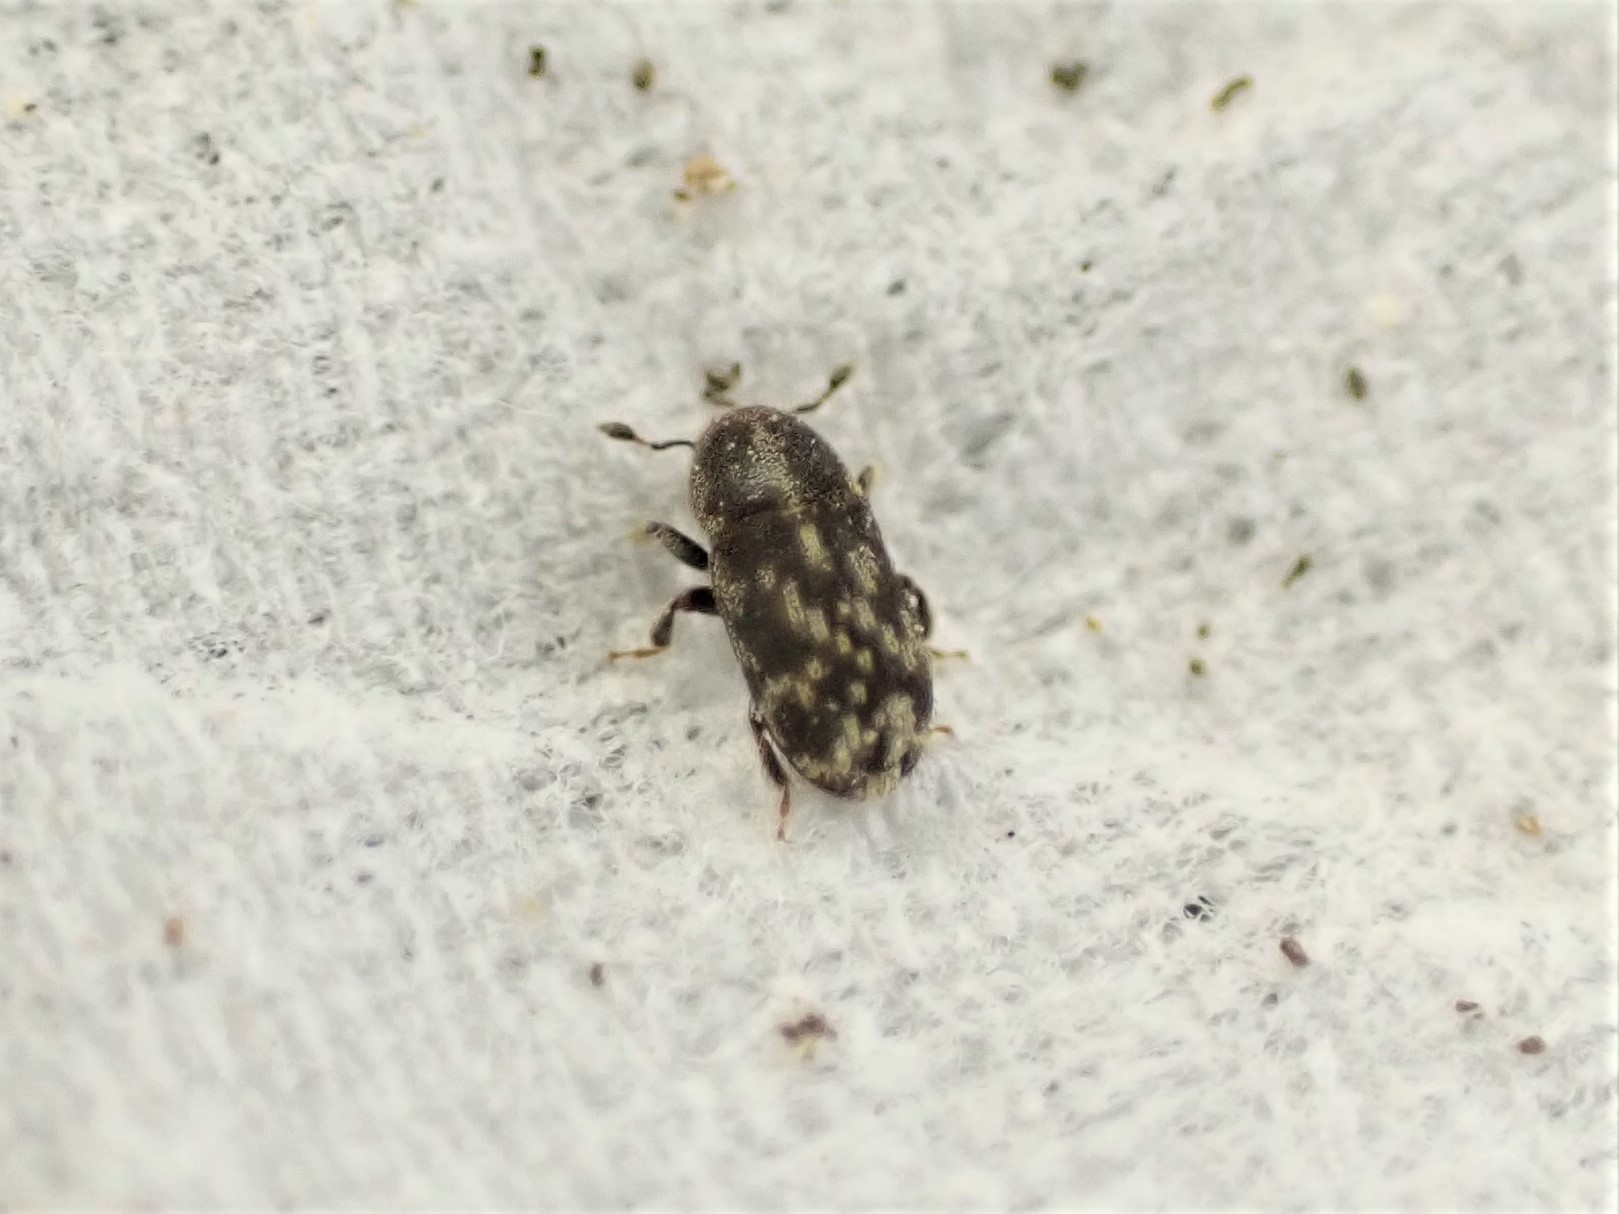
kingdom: Animalia
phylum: Arthropoda
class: Insecta
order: Coleoptera
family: Curculionidae
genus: Chaetoptelius
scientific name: Chaetoptelius mundulus
